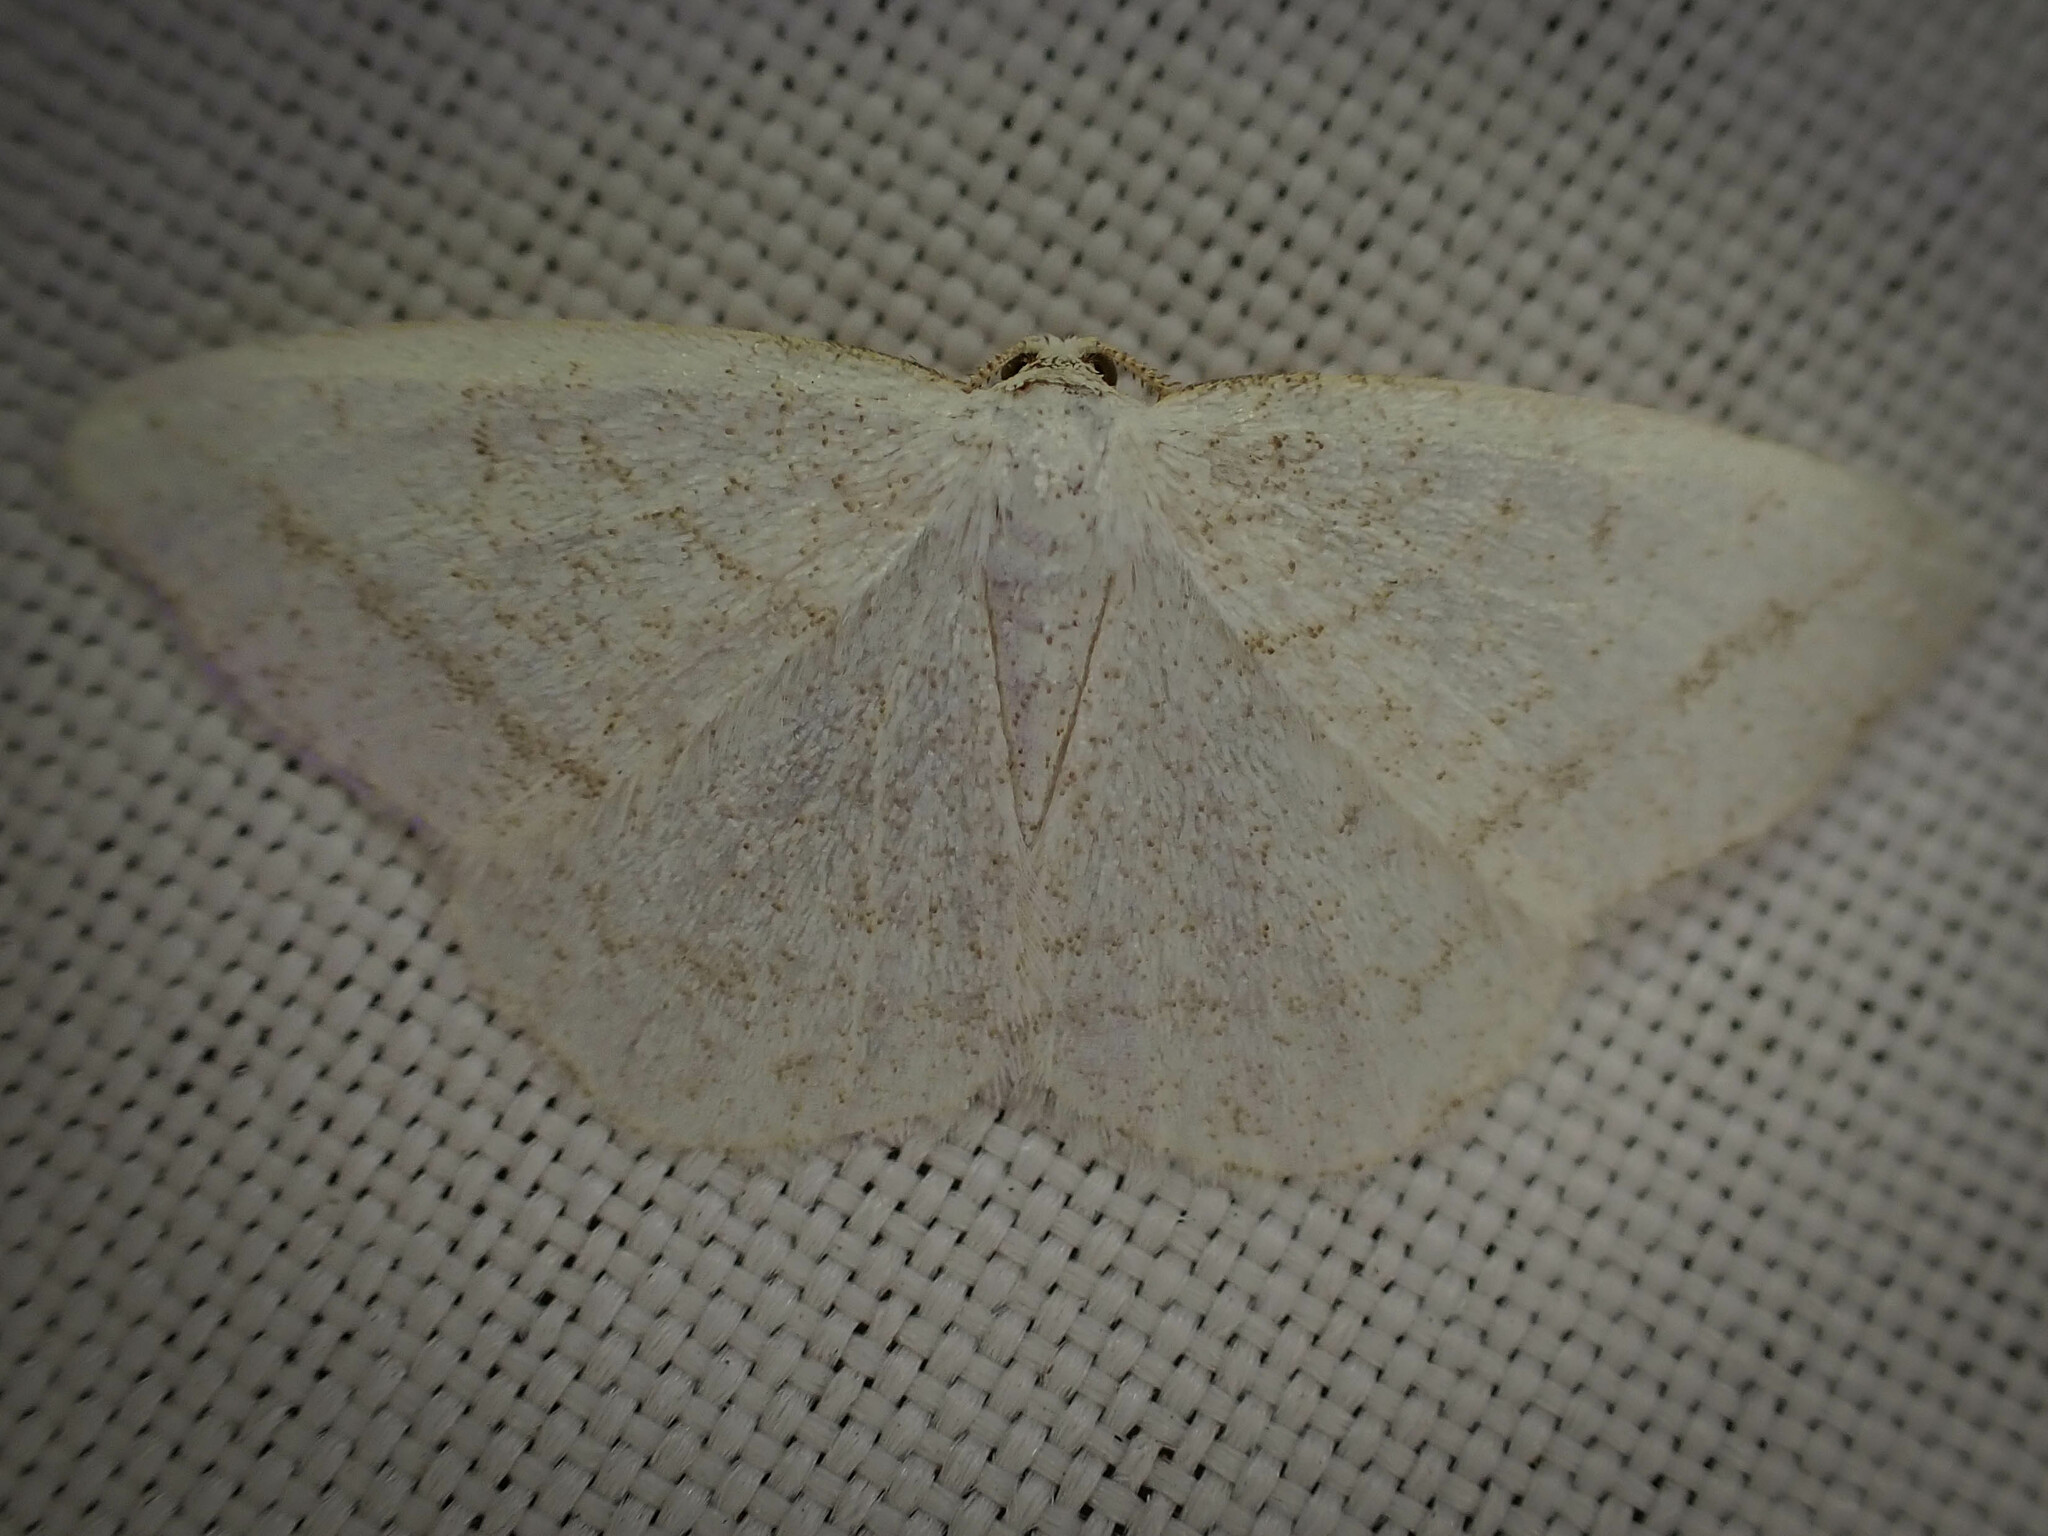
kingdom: Animalia
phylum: Arthropoda
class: Insecta
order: Lepidoptera
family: Geometridae
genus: Protitame
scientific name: Protitame subalbaria
